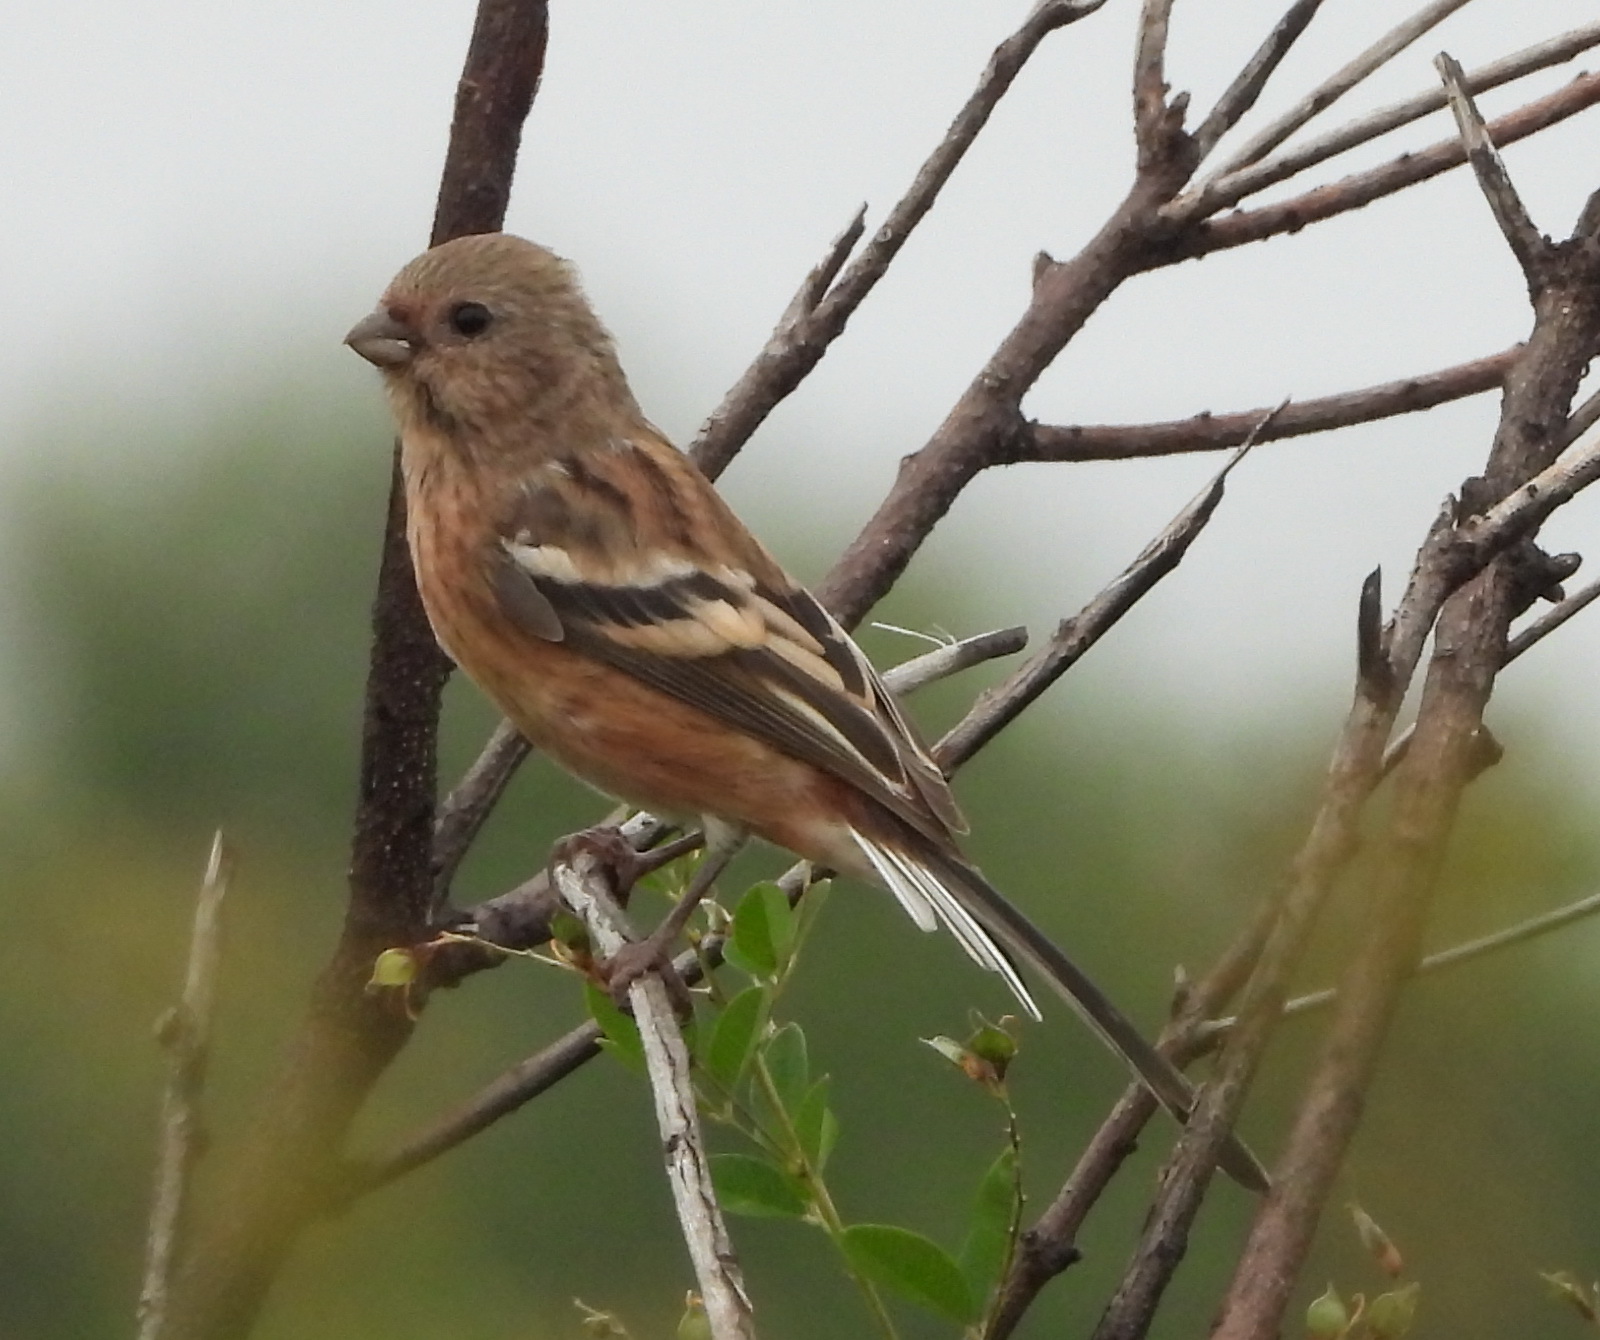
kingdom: Animalia
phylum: Chordata
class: Aves
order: Passeriformes
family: Fringillidae
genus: Carpodacus
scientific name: Carpodacus sibiricus
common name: Long-tailed rosefinch
